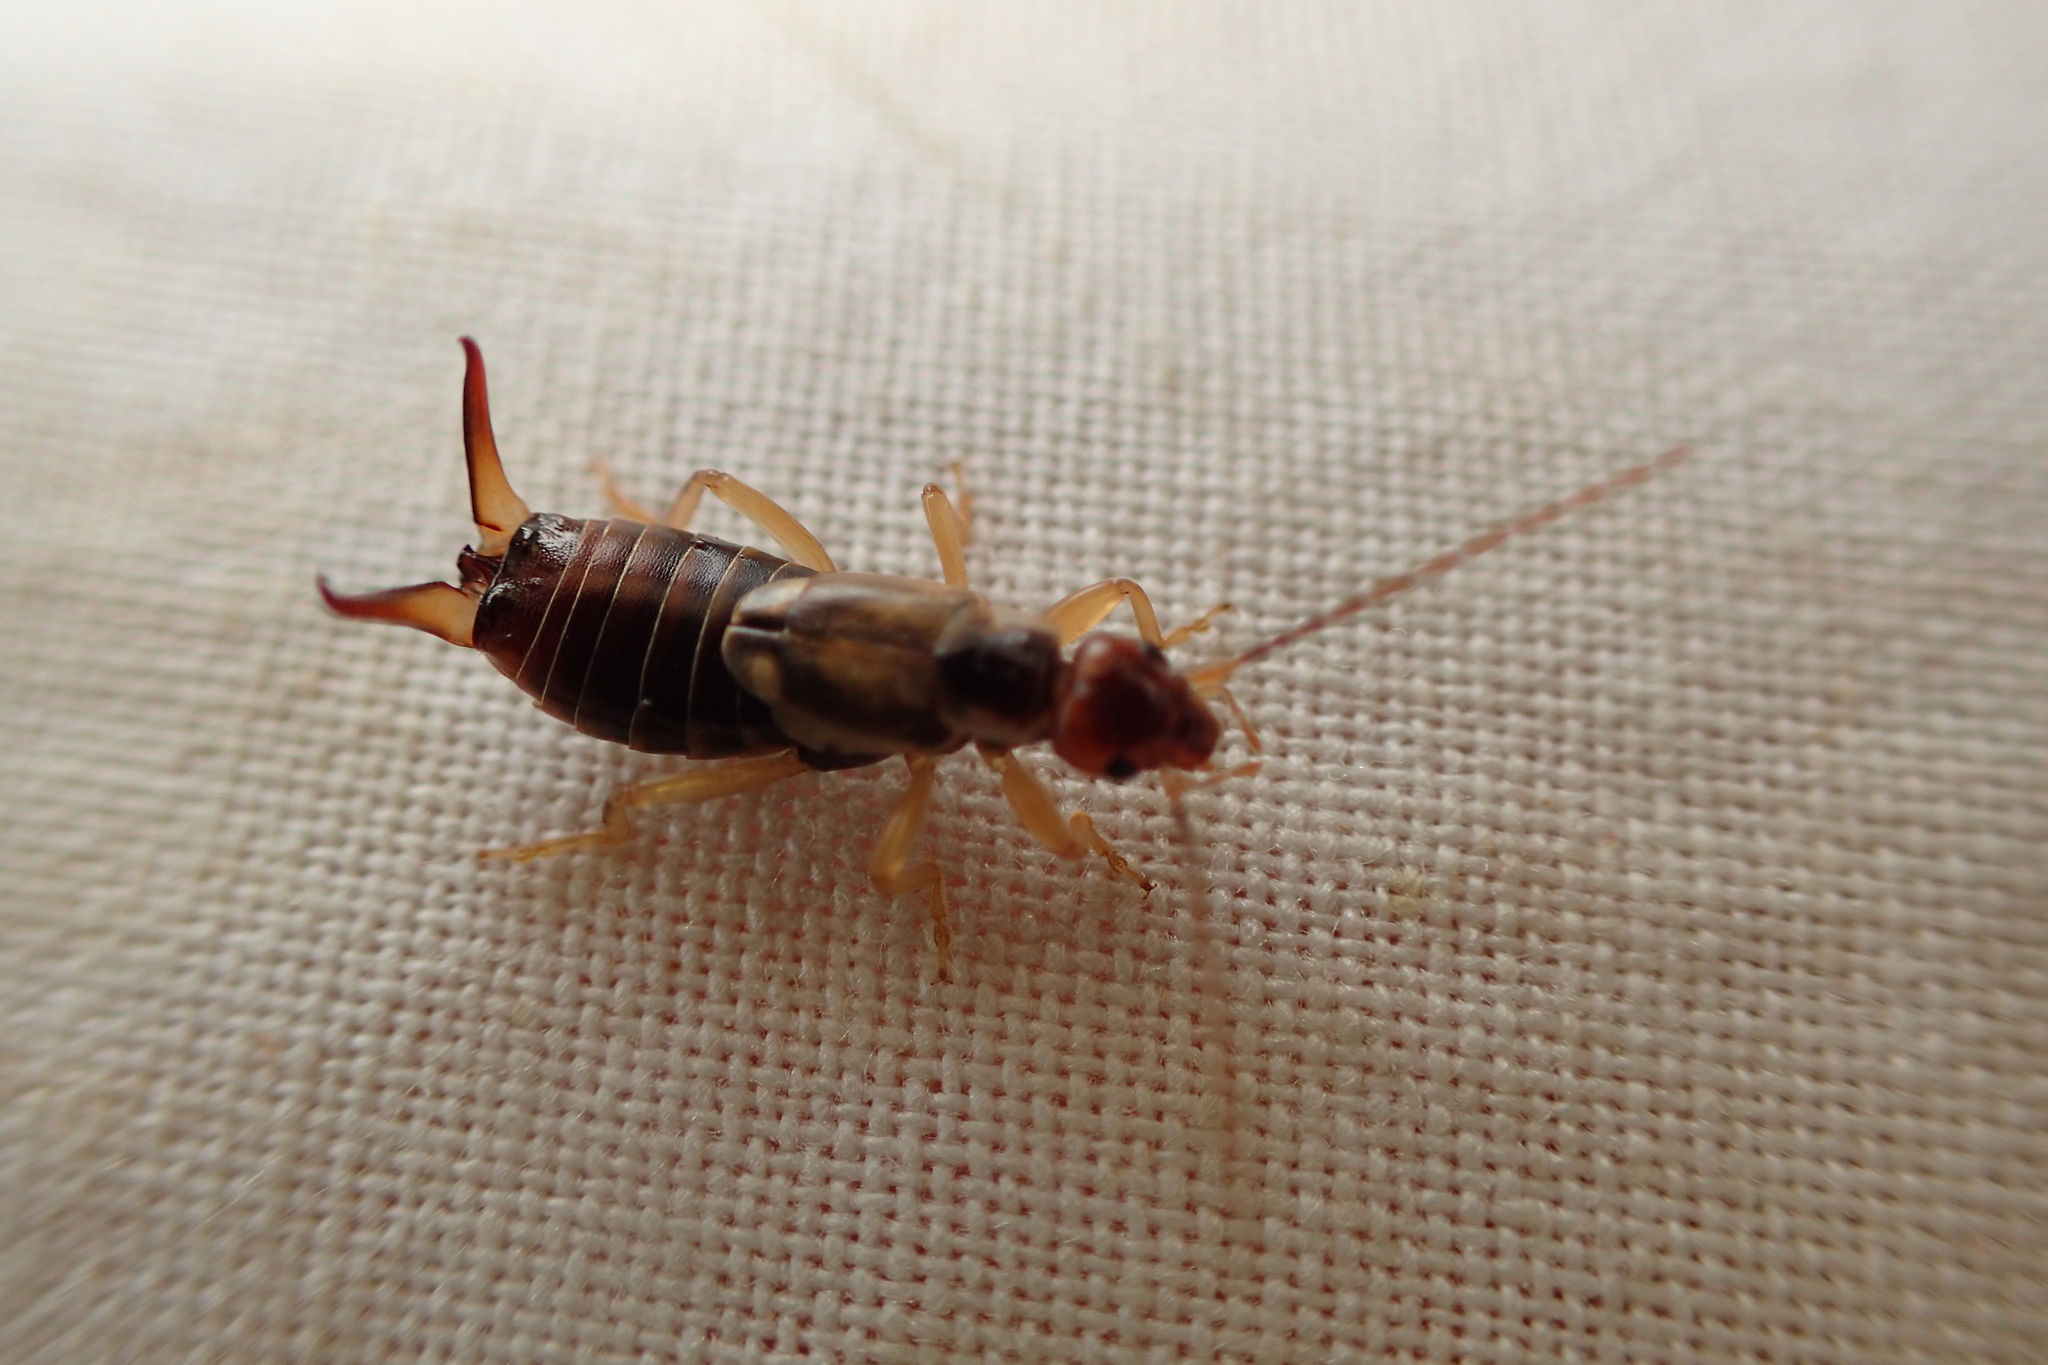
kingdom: Animalia
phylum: Arthropoda
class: Insecta
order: Dermaptera
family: Forficulidae
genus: Forficula
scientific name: Forficula
